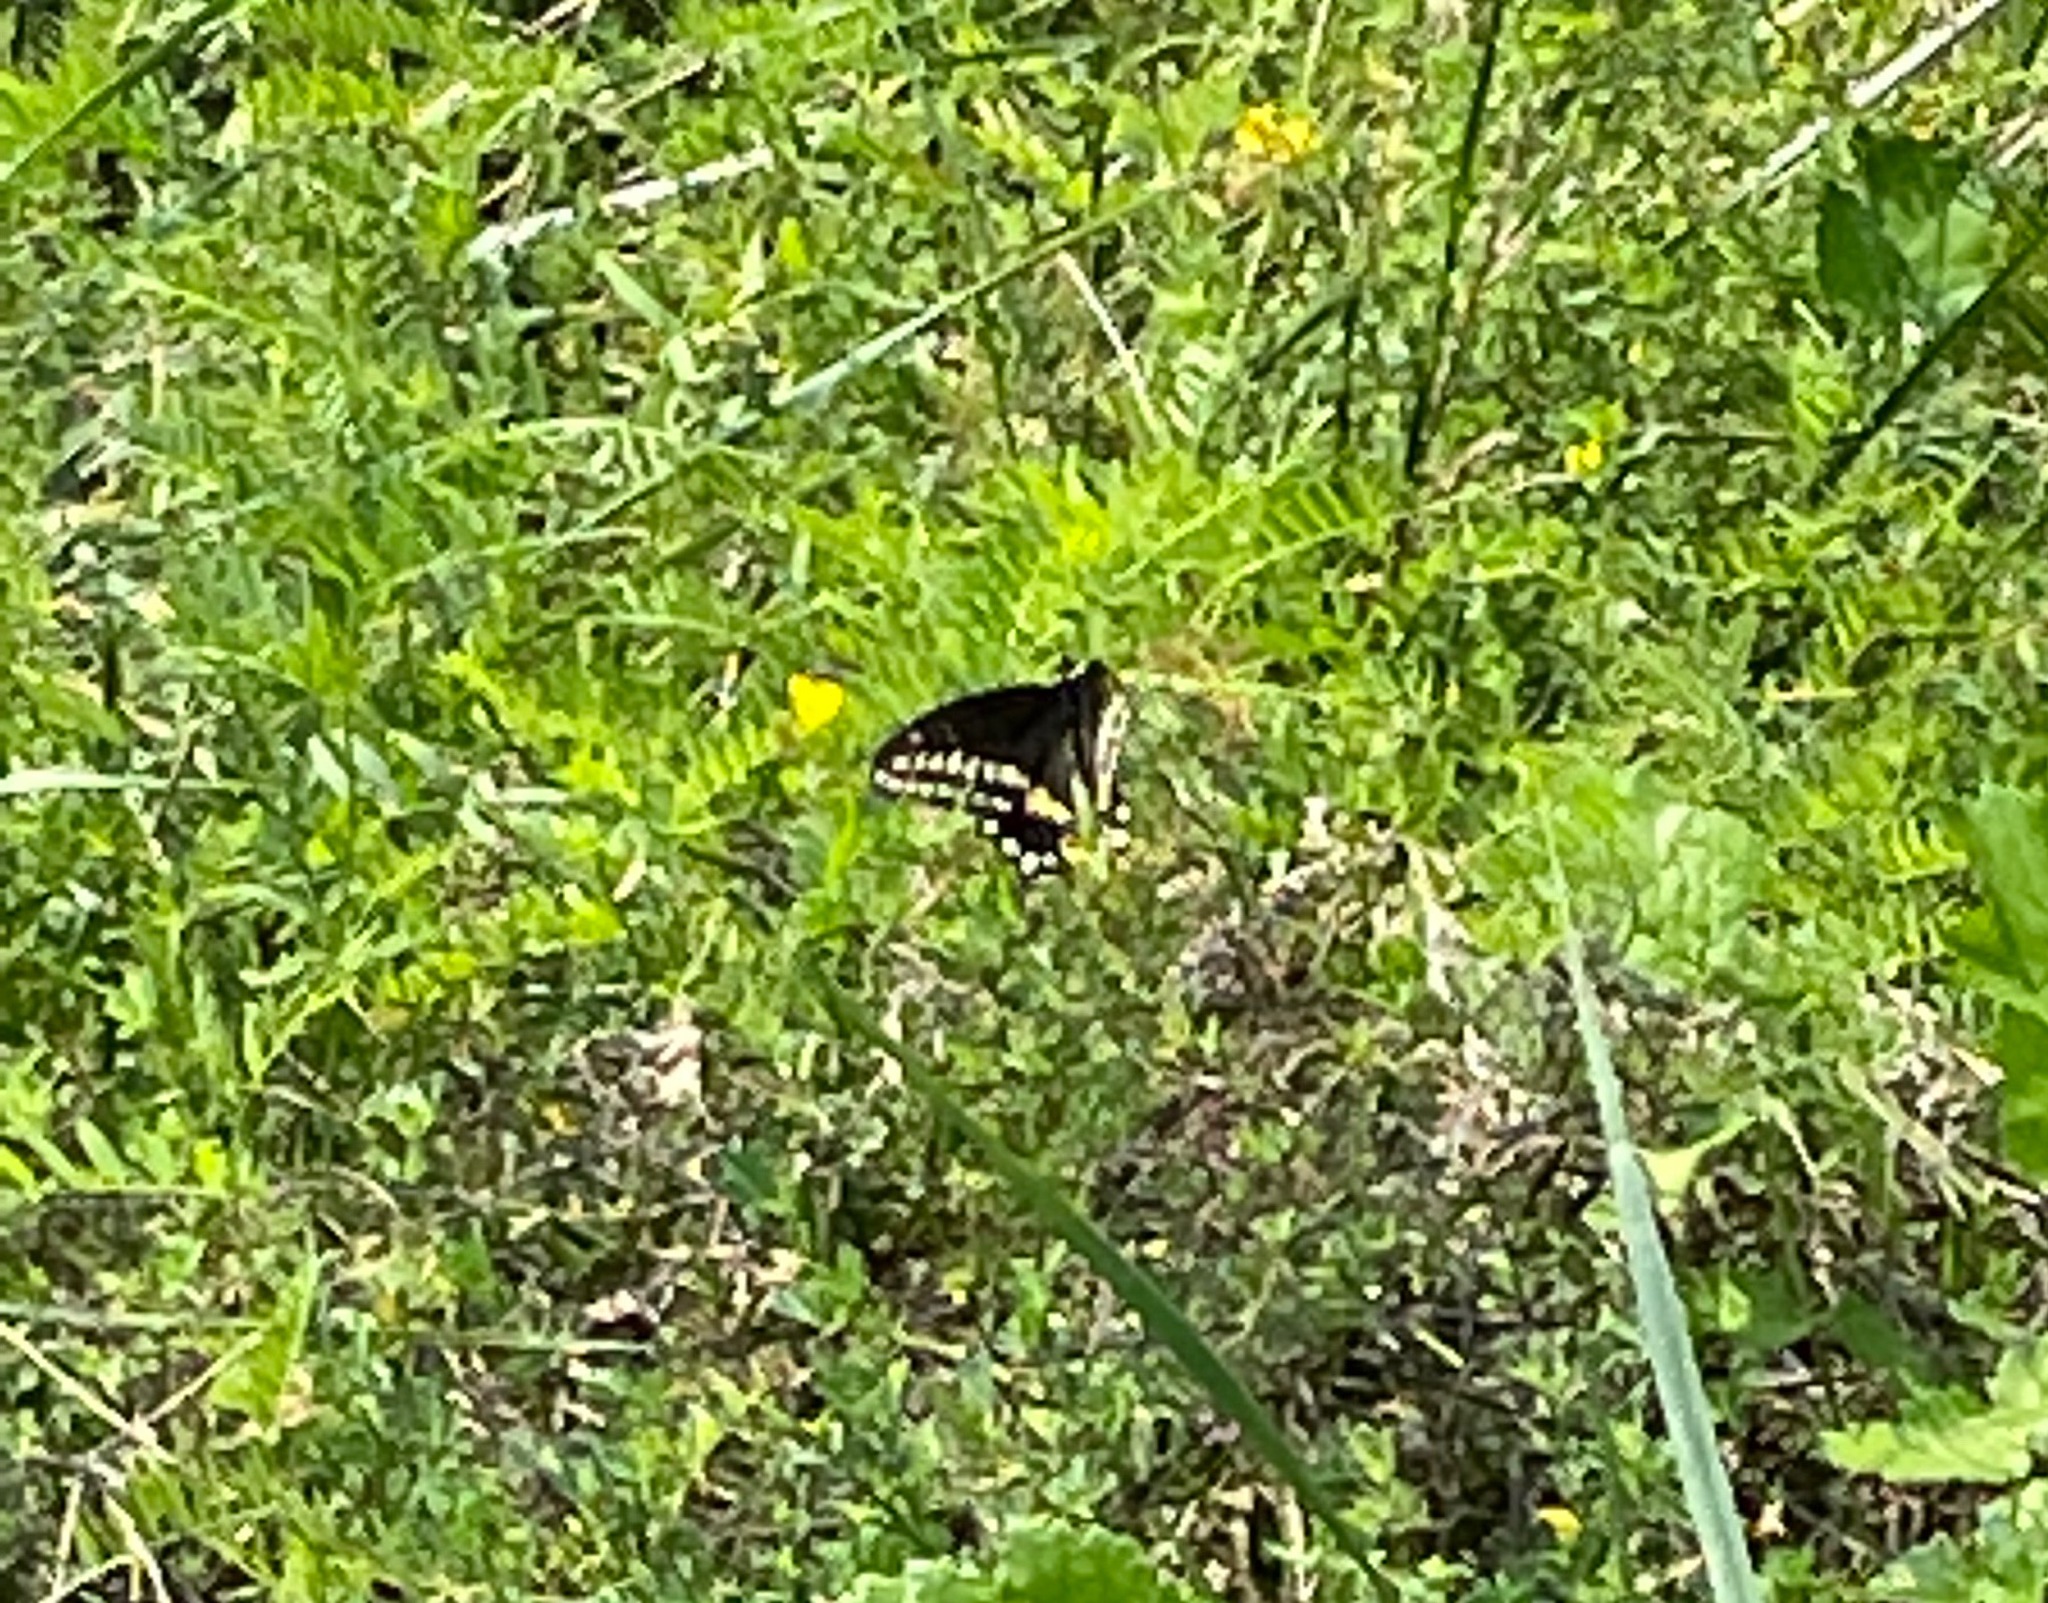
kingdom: Animalia
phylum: Arthropoda
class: Insecta
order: Lepidoptera
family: Papilionidae
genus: Papilio
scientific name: Papilio polyxenes
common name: Black swallowtail
